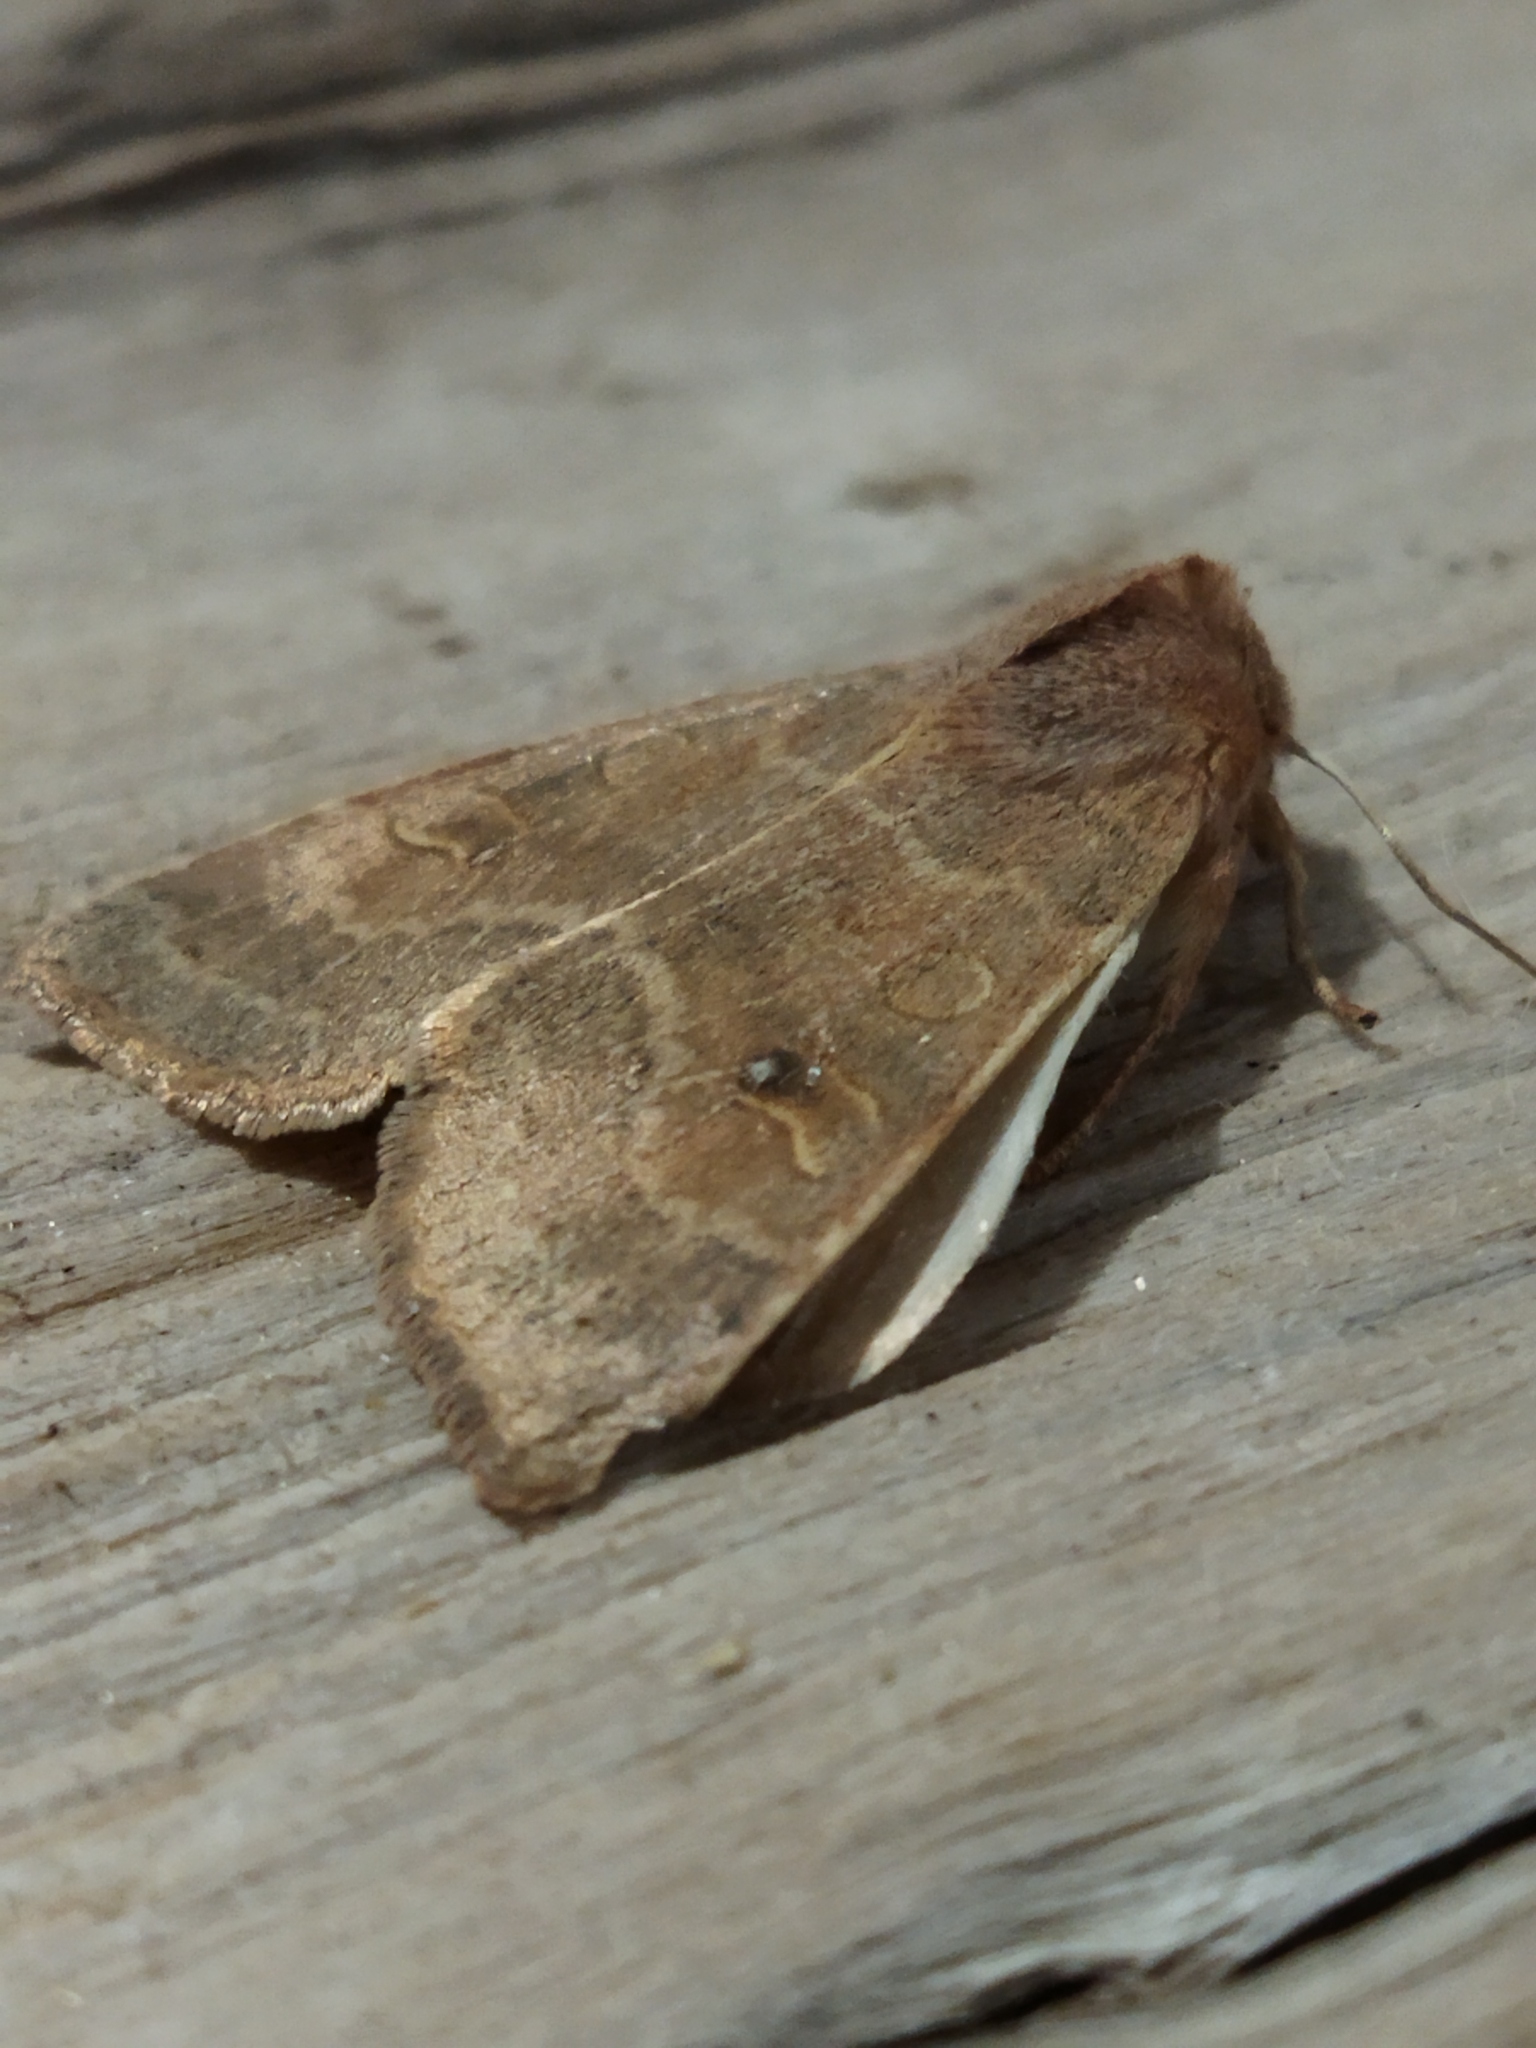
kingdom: Animalia
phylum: Arthropoda
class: Insecta
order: Lepidoptera
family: Noctuidae
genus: Xanthia
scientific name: Xanthia ocellaris
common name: Pale-lemon sallow
